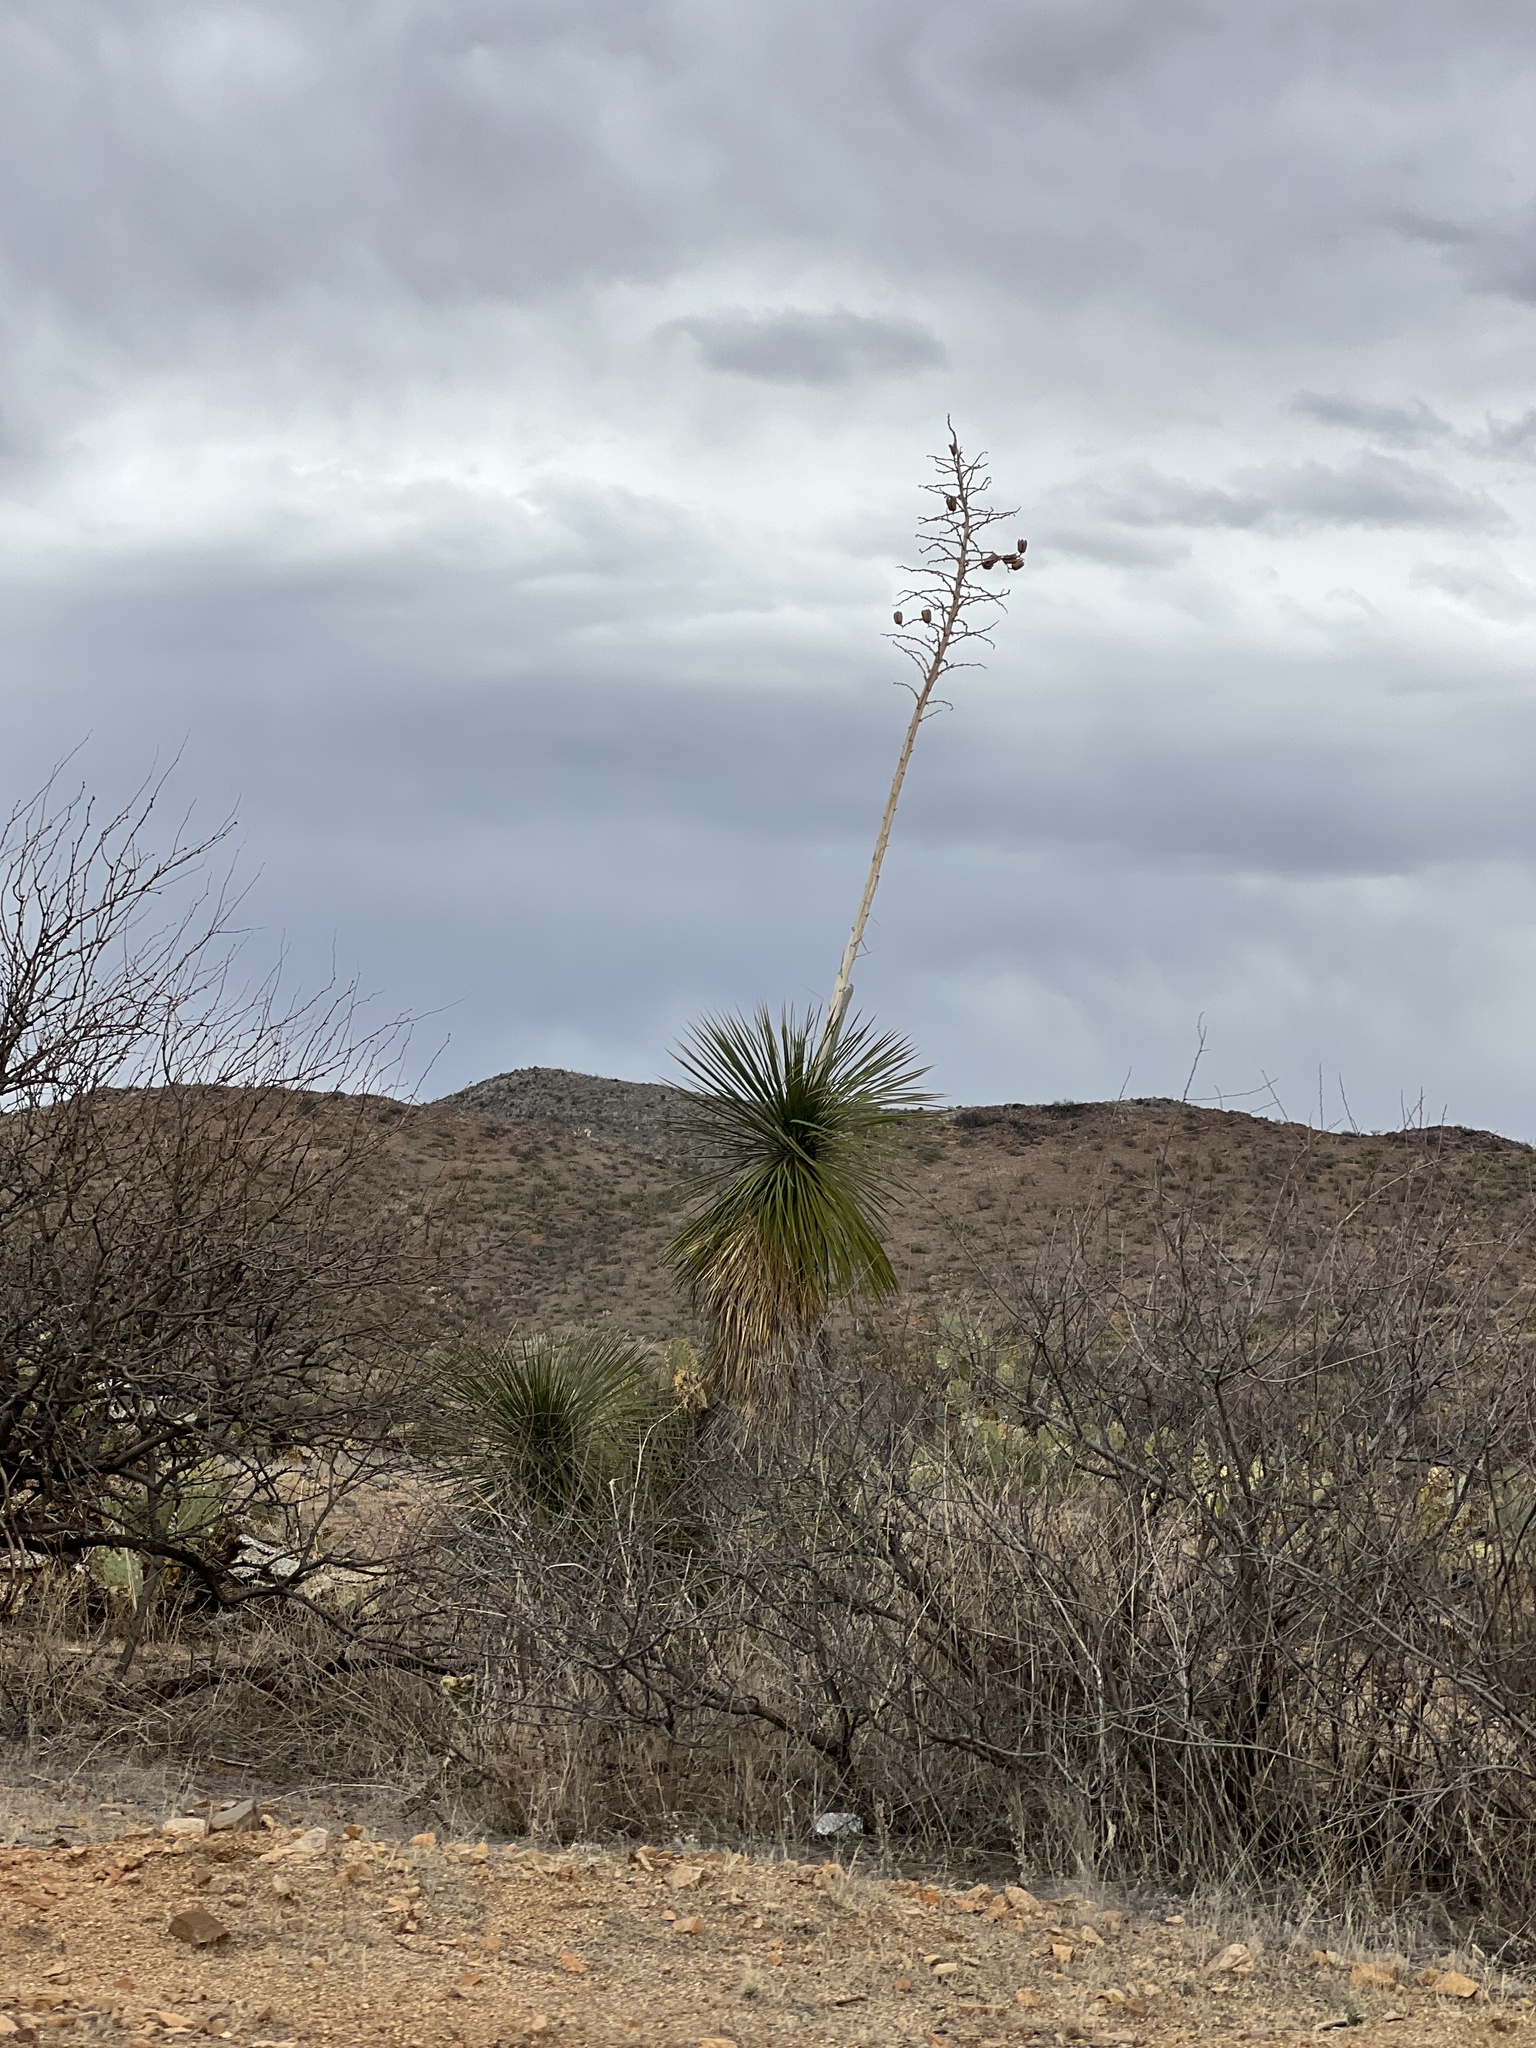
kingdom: Plantae
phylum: Tracheophyta
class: Liliopsida
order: Asparagales
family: Asparagaceae
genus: Yucca
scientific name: Yucca elata
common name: Palmella
